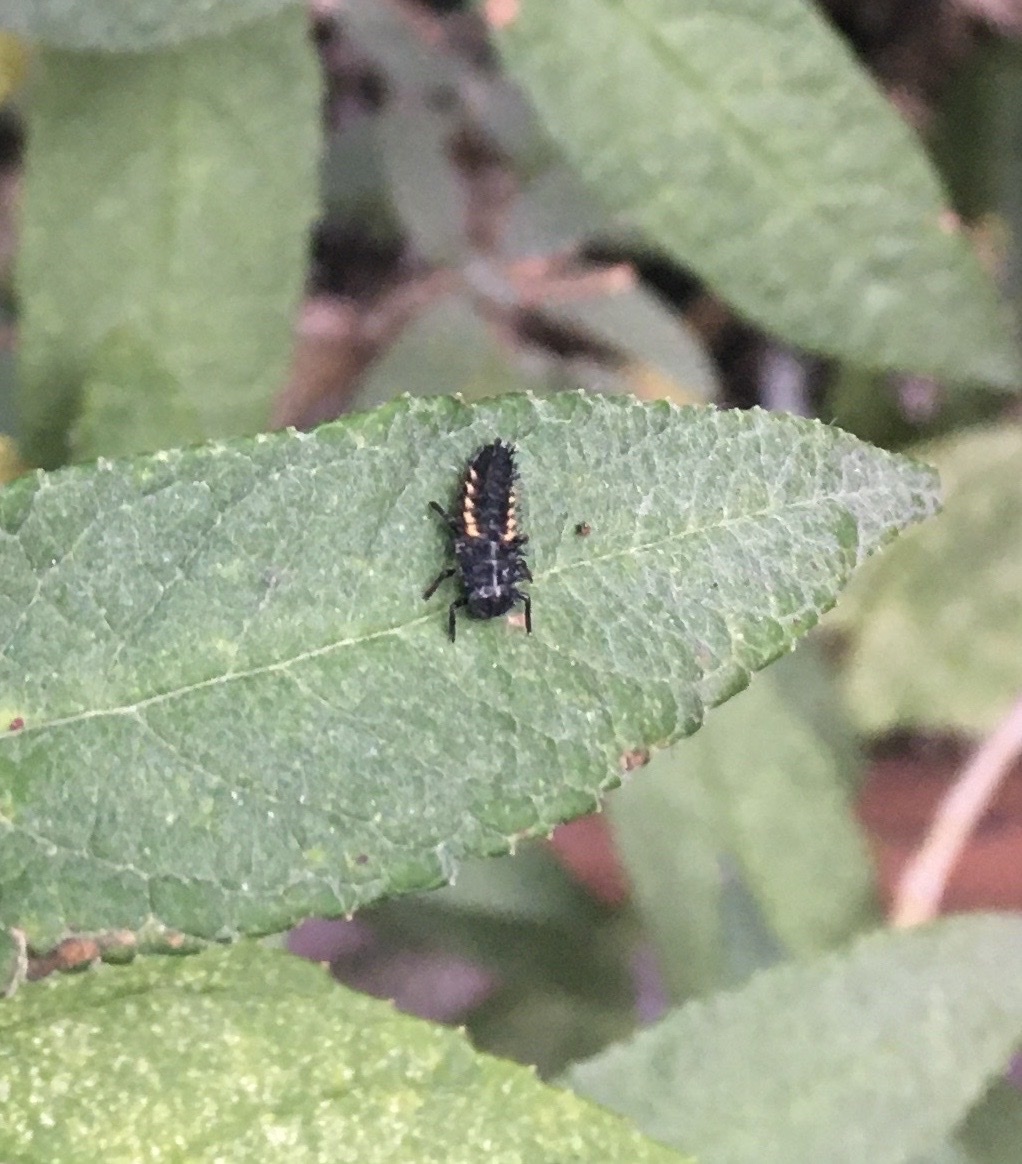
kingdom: Animalia
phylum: Arthropoda
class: Insecta
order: Coleoptera
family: Coccinellidae
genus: Harmonia
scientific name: Harmonia axyridis
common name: Harlequin ladybird
